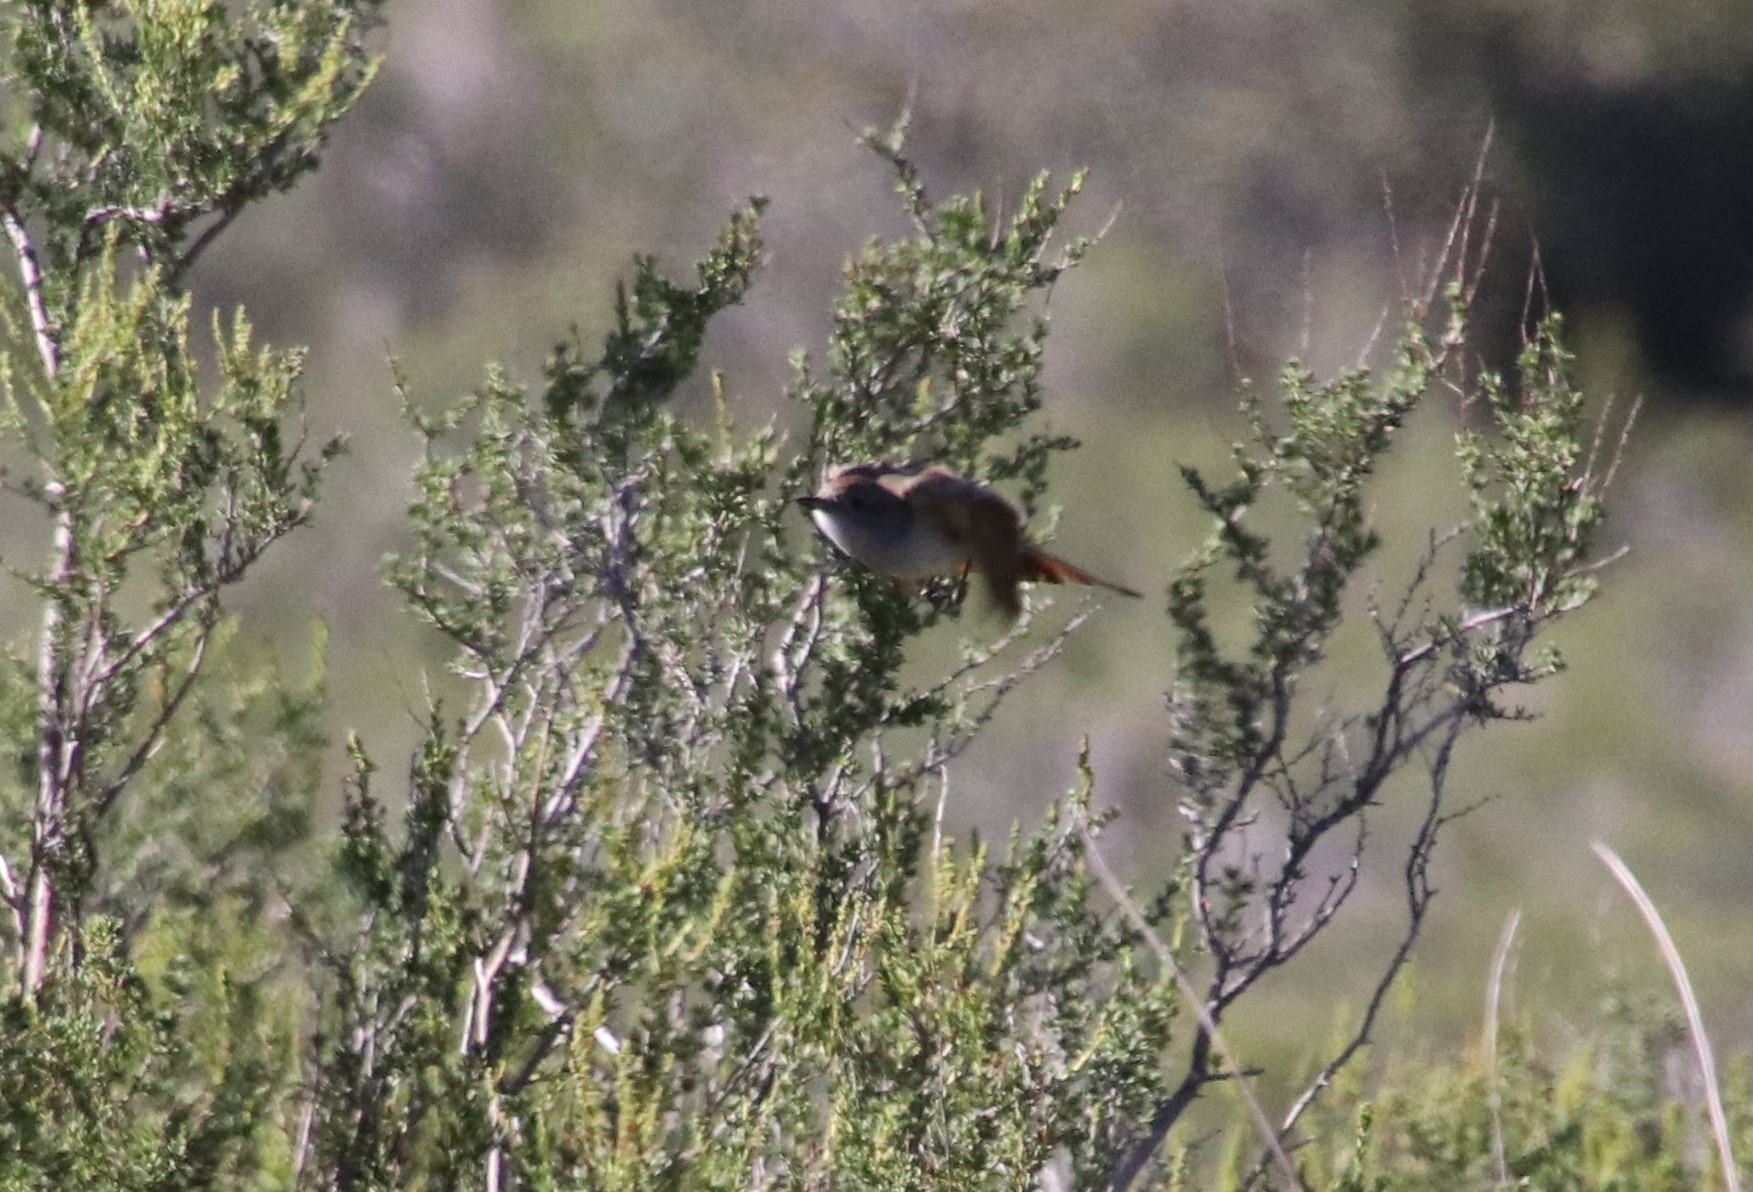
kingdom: Animalia
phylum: Chordata
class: Aves
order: Passeriformes
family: Tyrannidae
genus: Myiarchus
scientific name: Myiarchus cinerascens
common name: Ash-throated flycatcher
